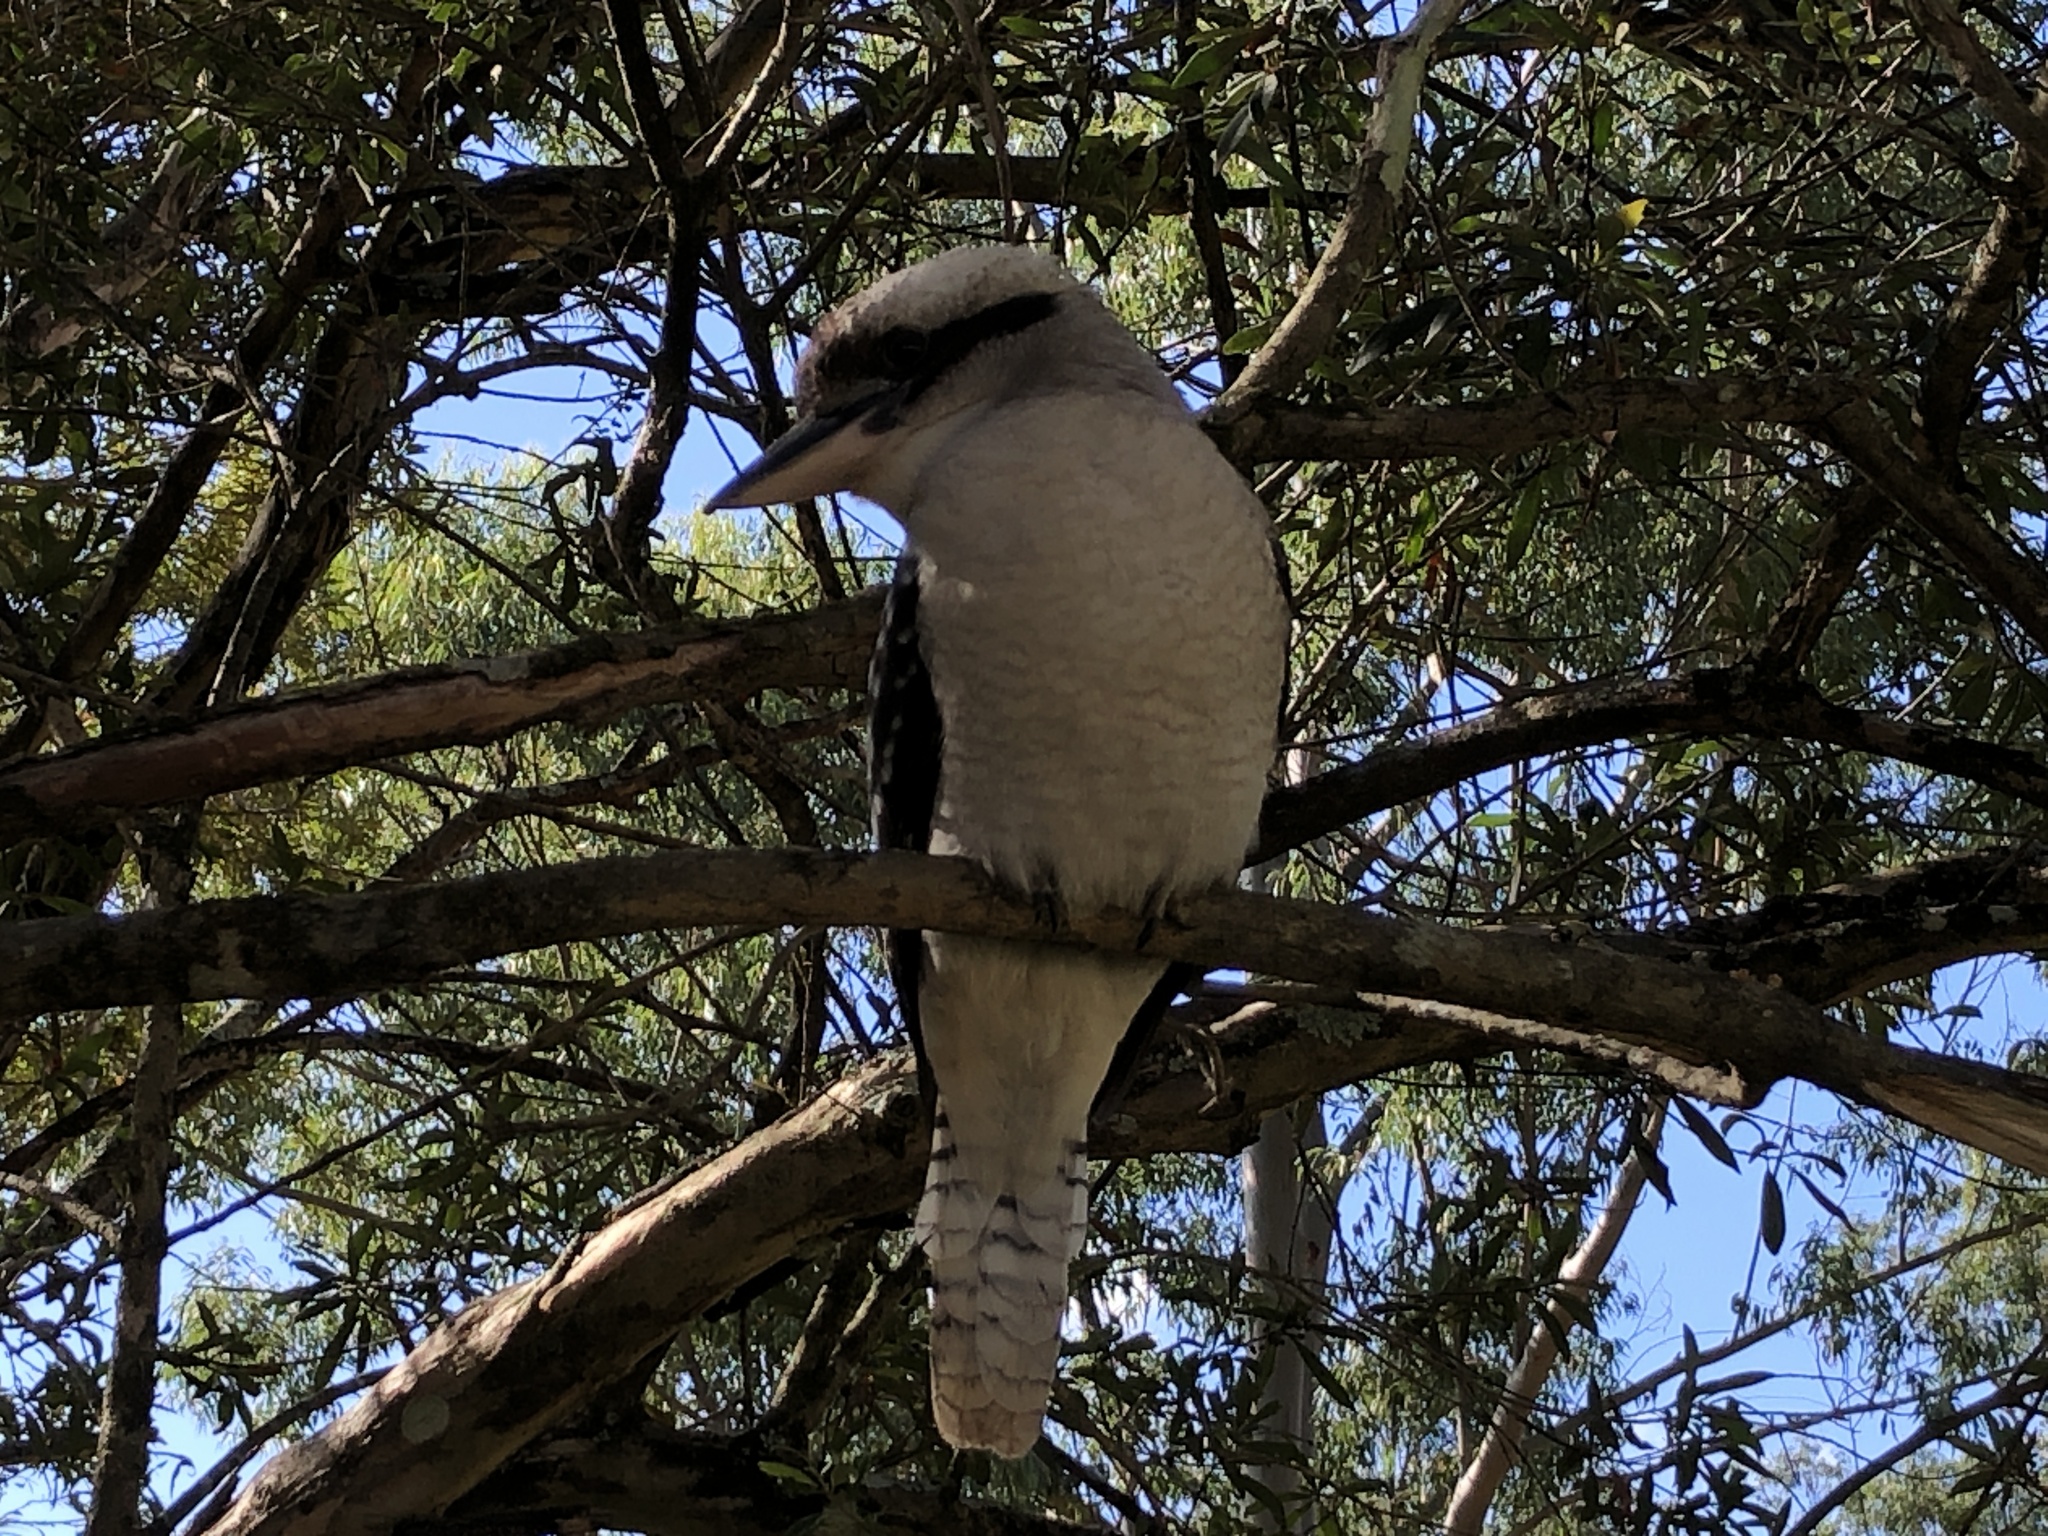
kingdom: Animalia
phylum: Chordata
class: Aves
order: Coraciiformes
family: Alcedinidae
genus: Dacelo
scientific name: Dacelo novaeguineae
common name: Laughing kookaburra
